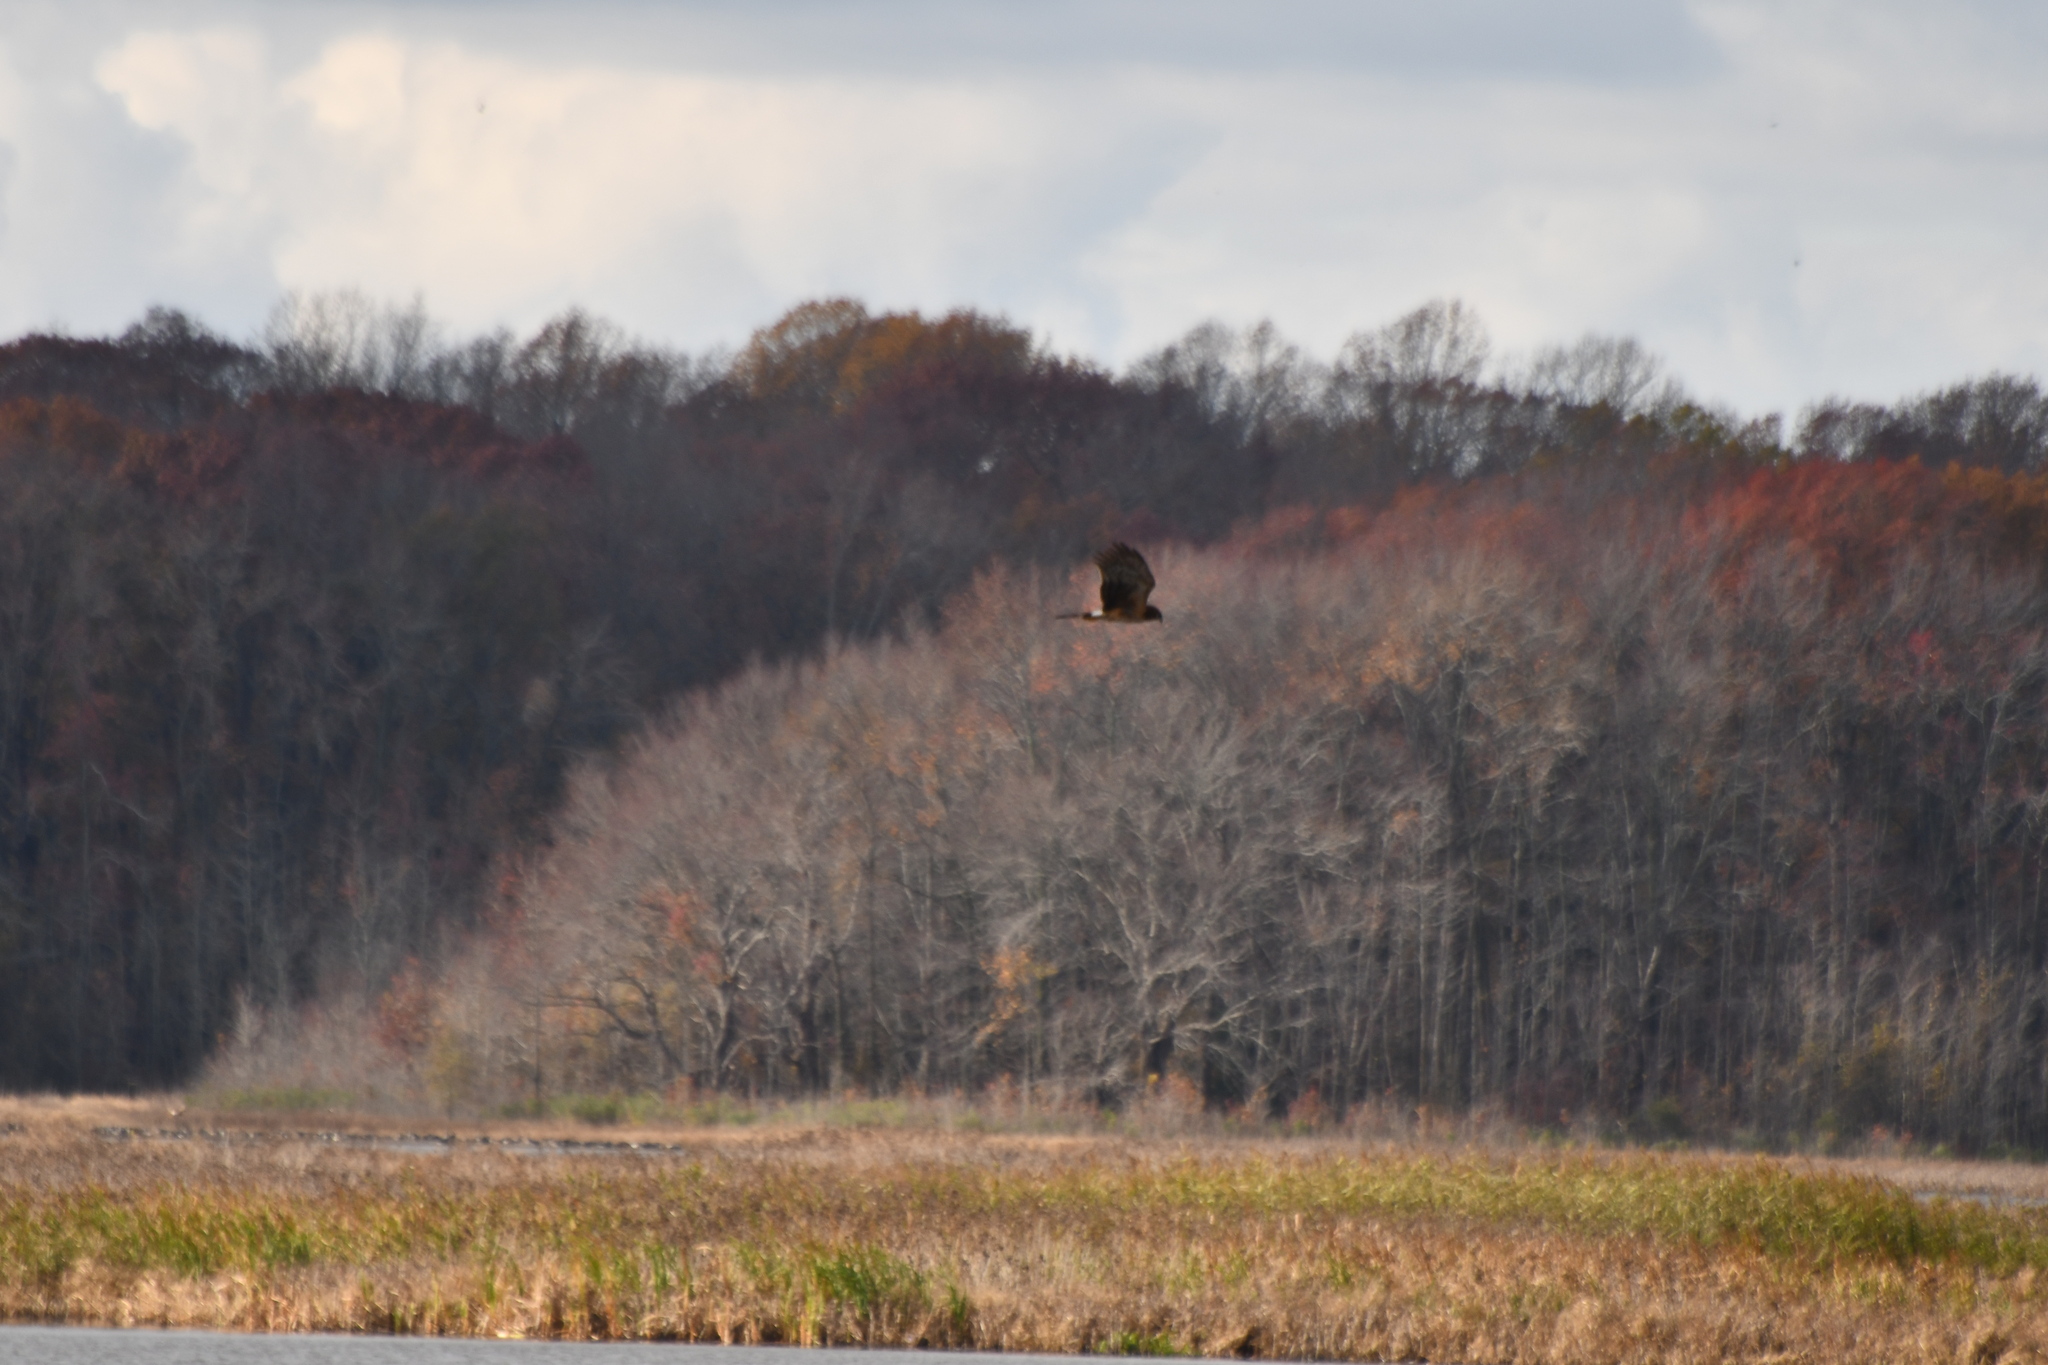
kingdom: Animalia
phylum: Chordata
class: Aves
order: Accipitriformes
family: Accipitridae
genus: Circus
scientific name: Circus cyaneus
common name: Hen harrier
